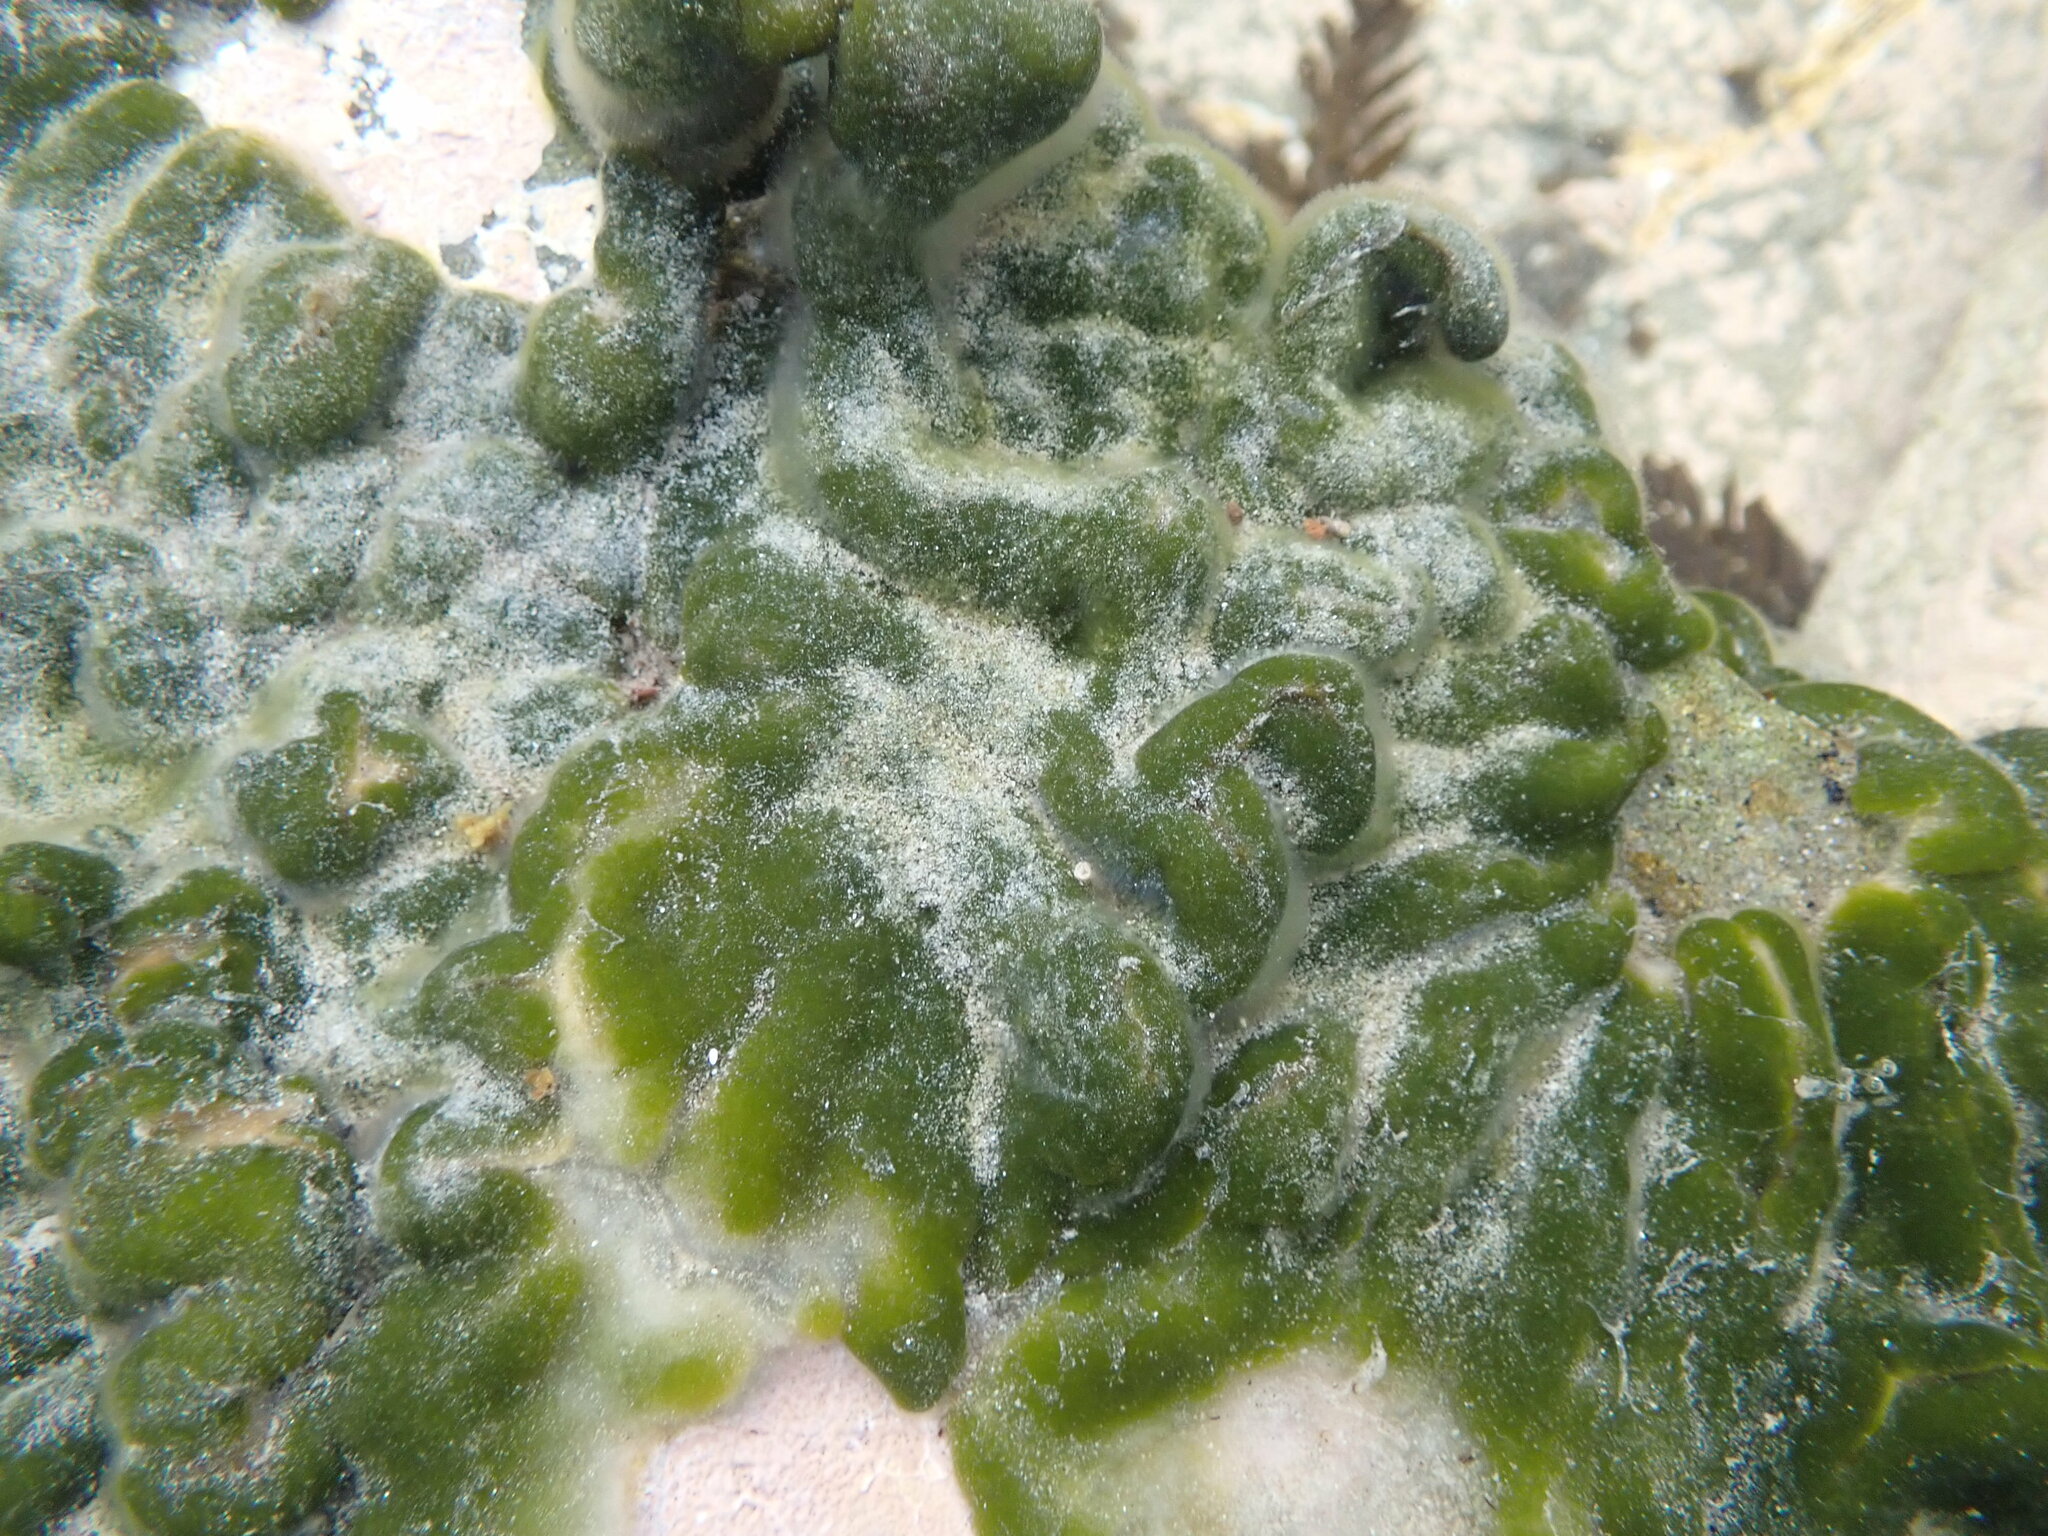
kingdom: Plantae
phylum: Chlorophyta
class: Ulvophyceae
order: Bryopsidales
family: Codiaceae
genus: Codium
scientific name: Codium convolutum
